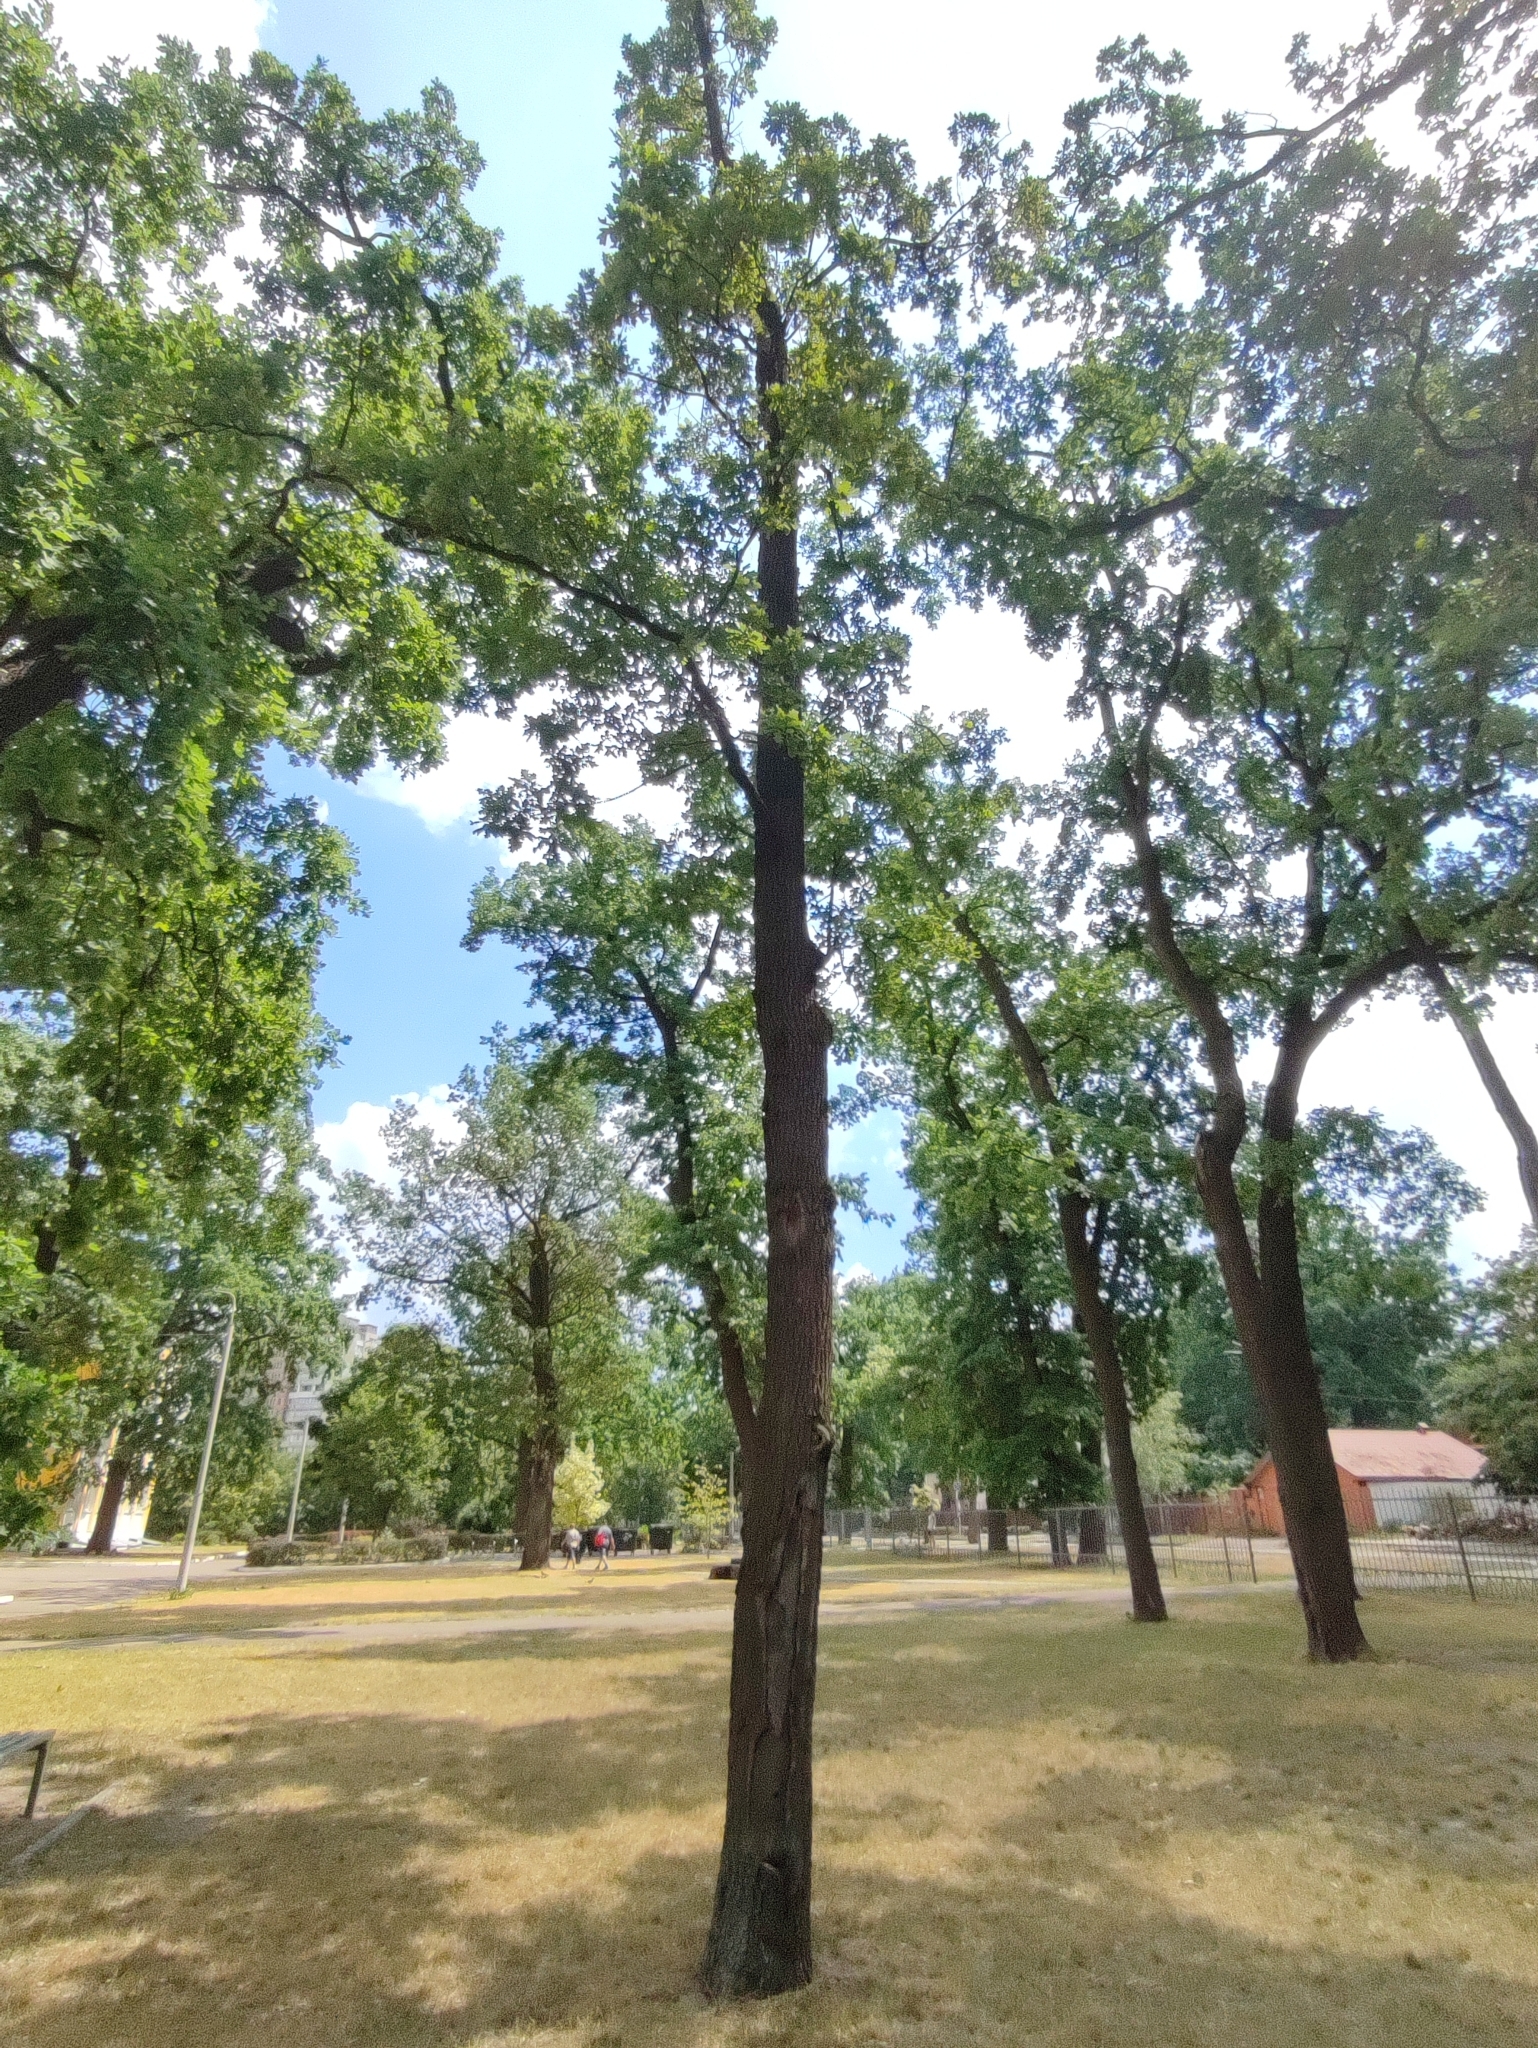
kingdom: Plantae
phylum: Tracheophyta
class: Magnoliopsida
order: Fagales
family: Fagaceae
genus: Quercus
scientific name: Quercus robur
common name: Pedunculate oak
